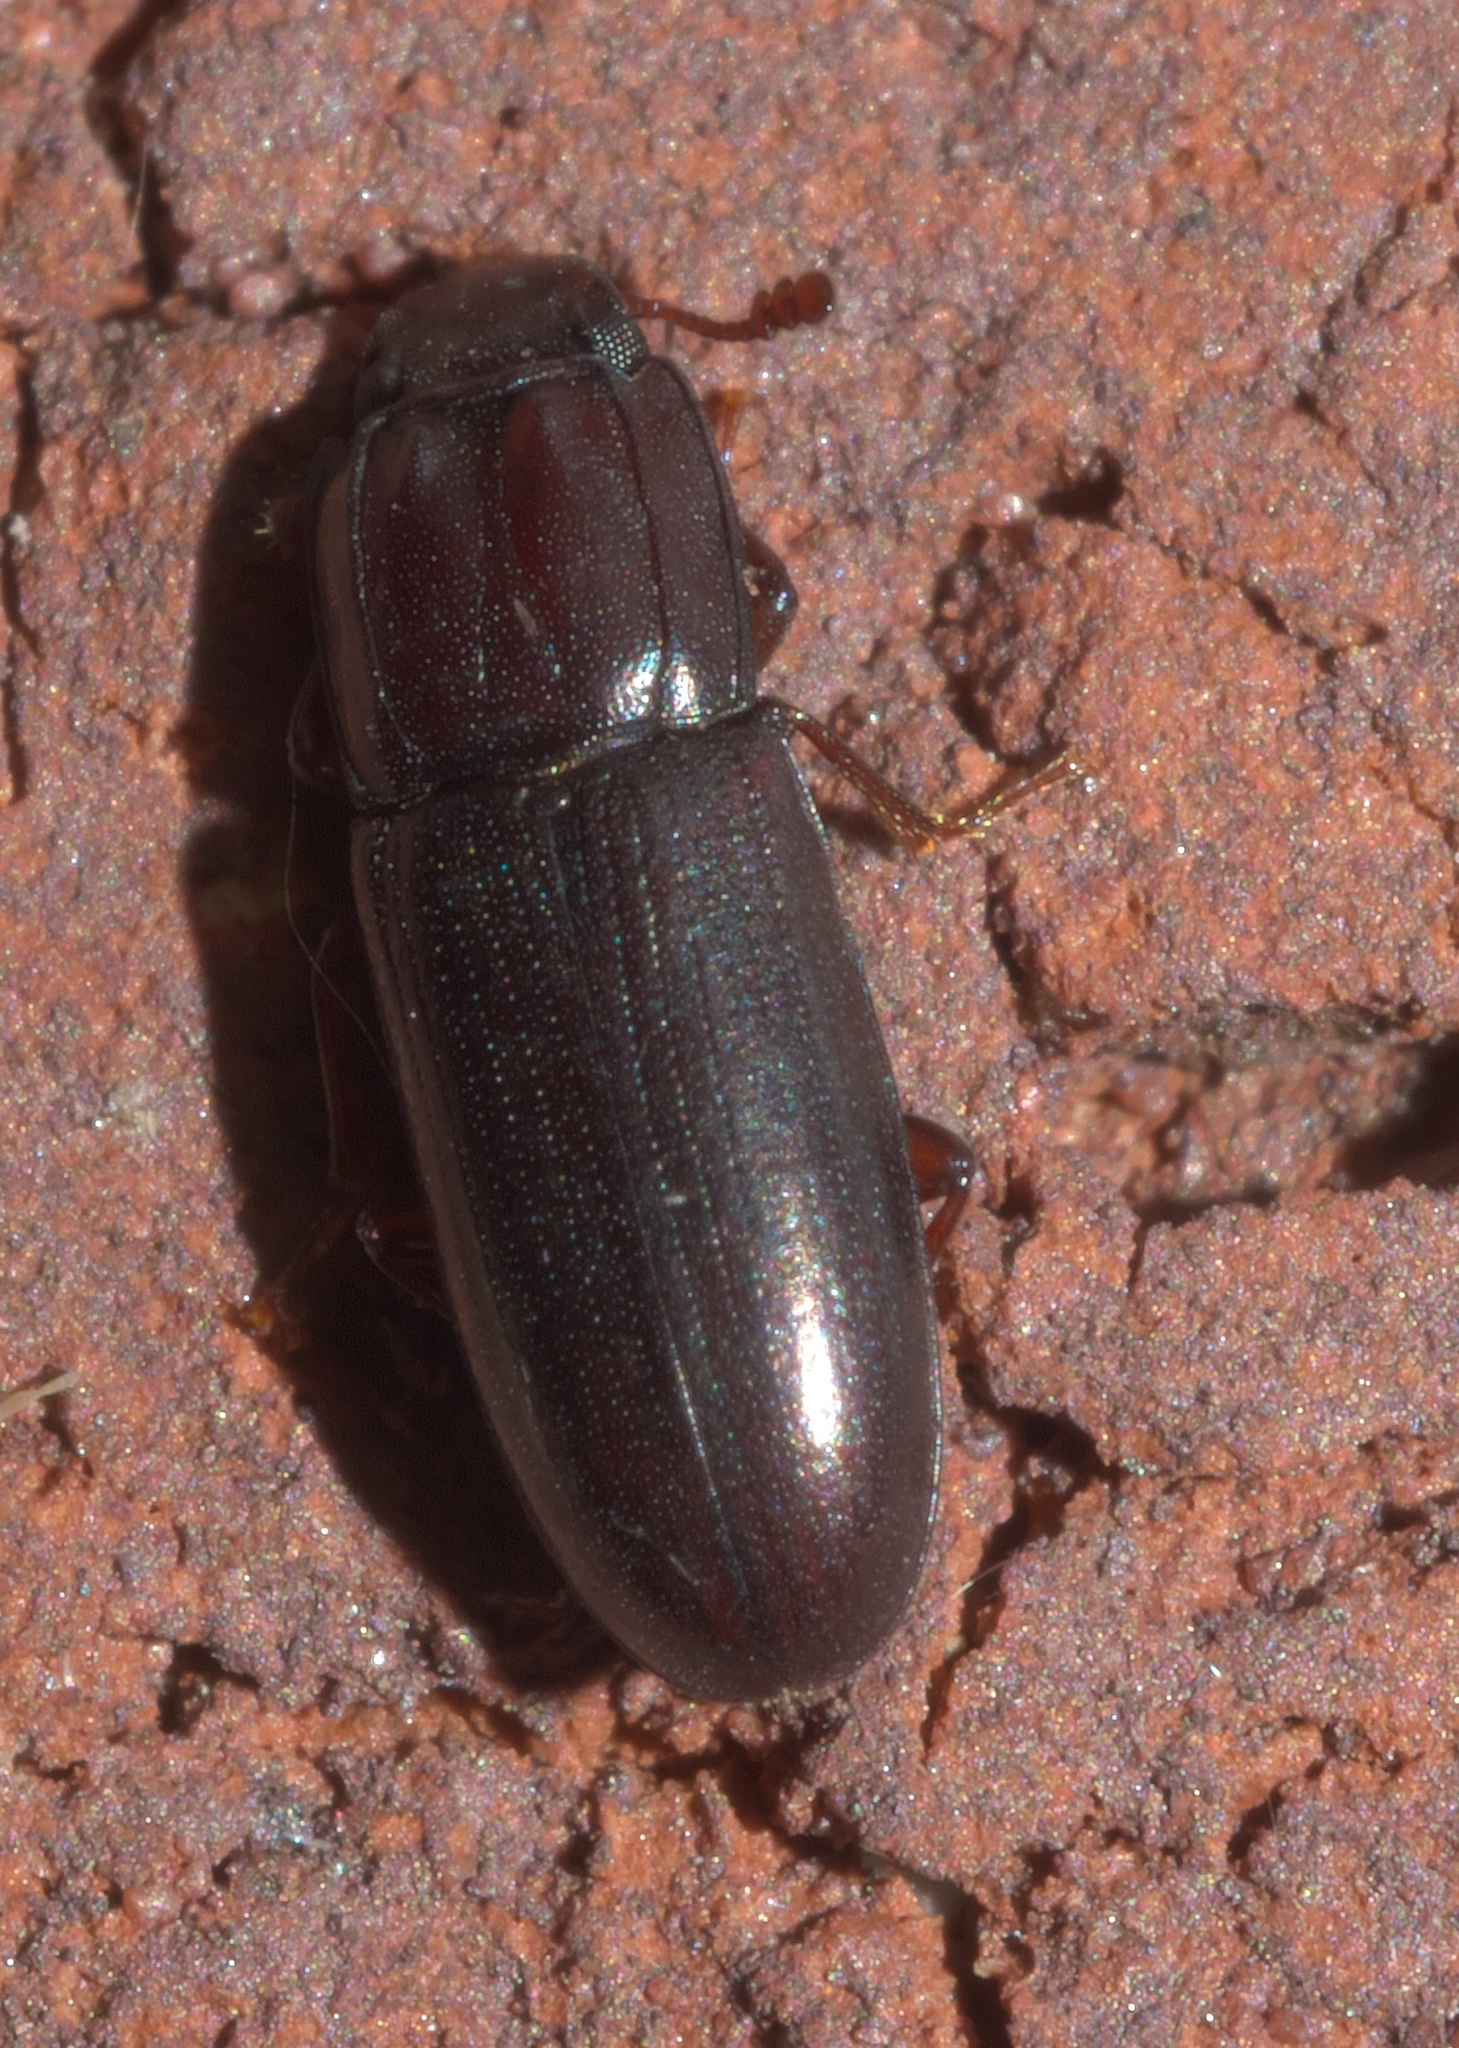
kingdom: Animalia
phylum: Arthropoda
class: Insecta
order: Coleoptera
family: Zopheridae
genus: Aulonium
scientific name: Aulonium parallelopipedum
